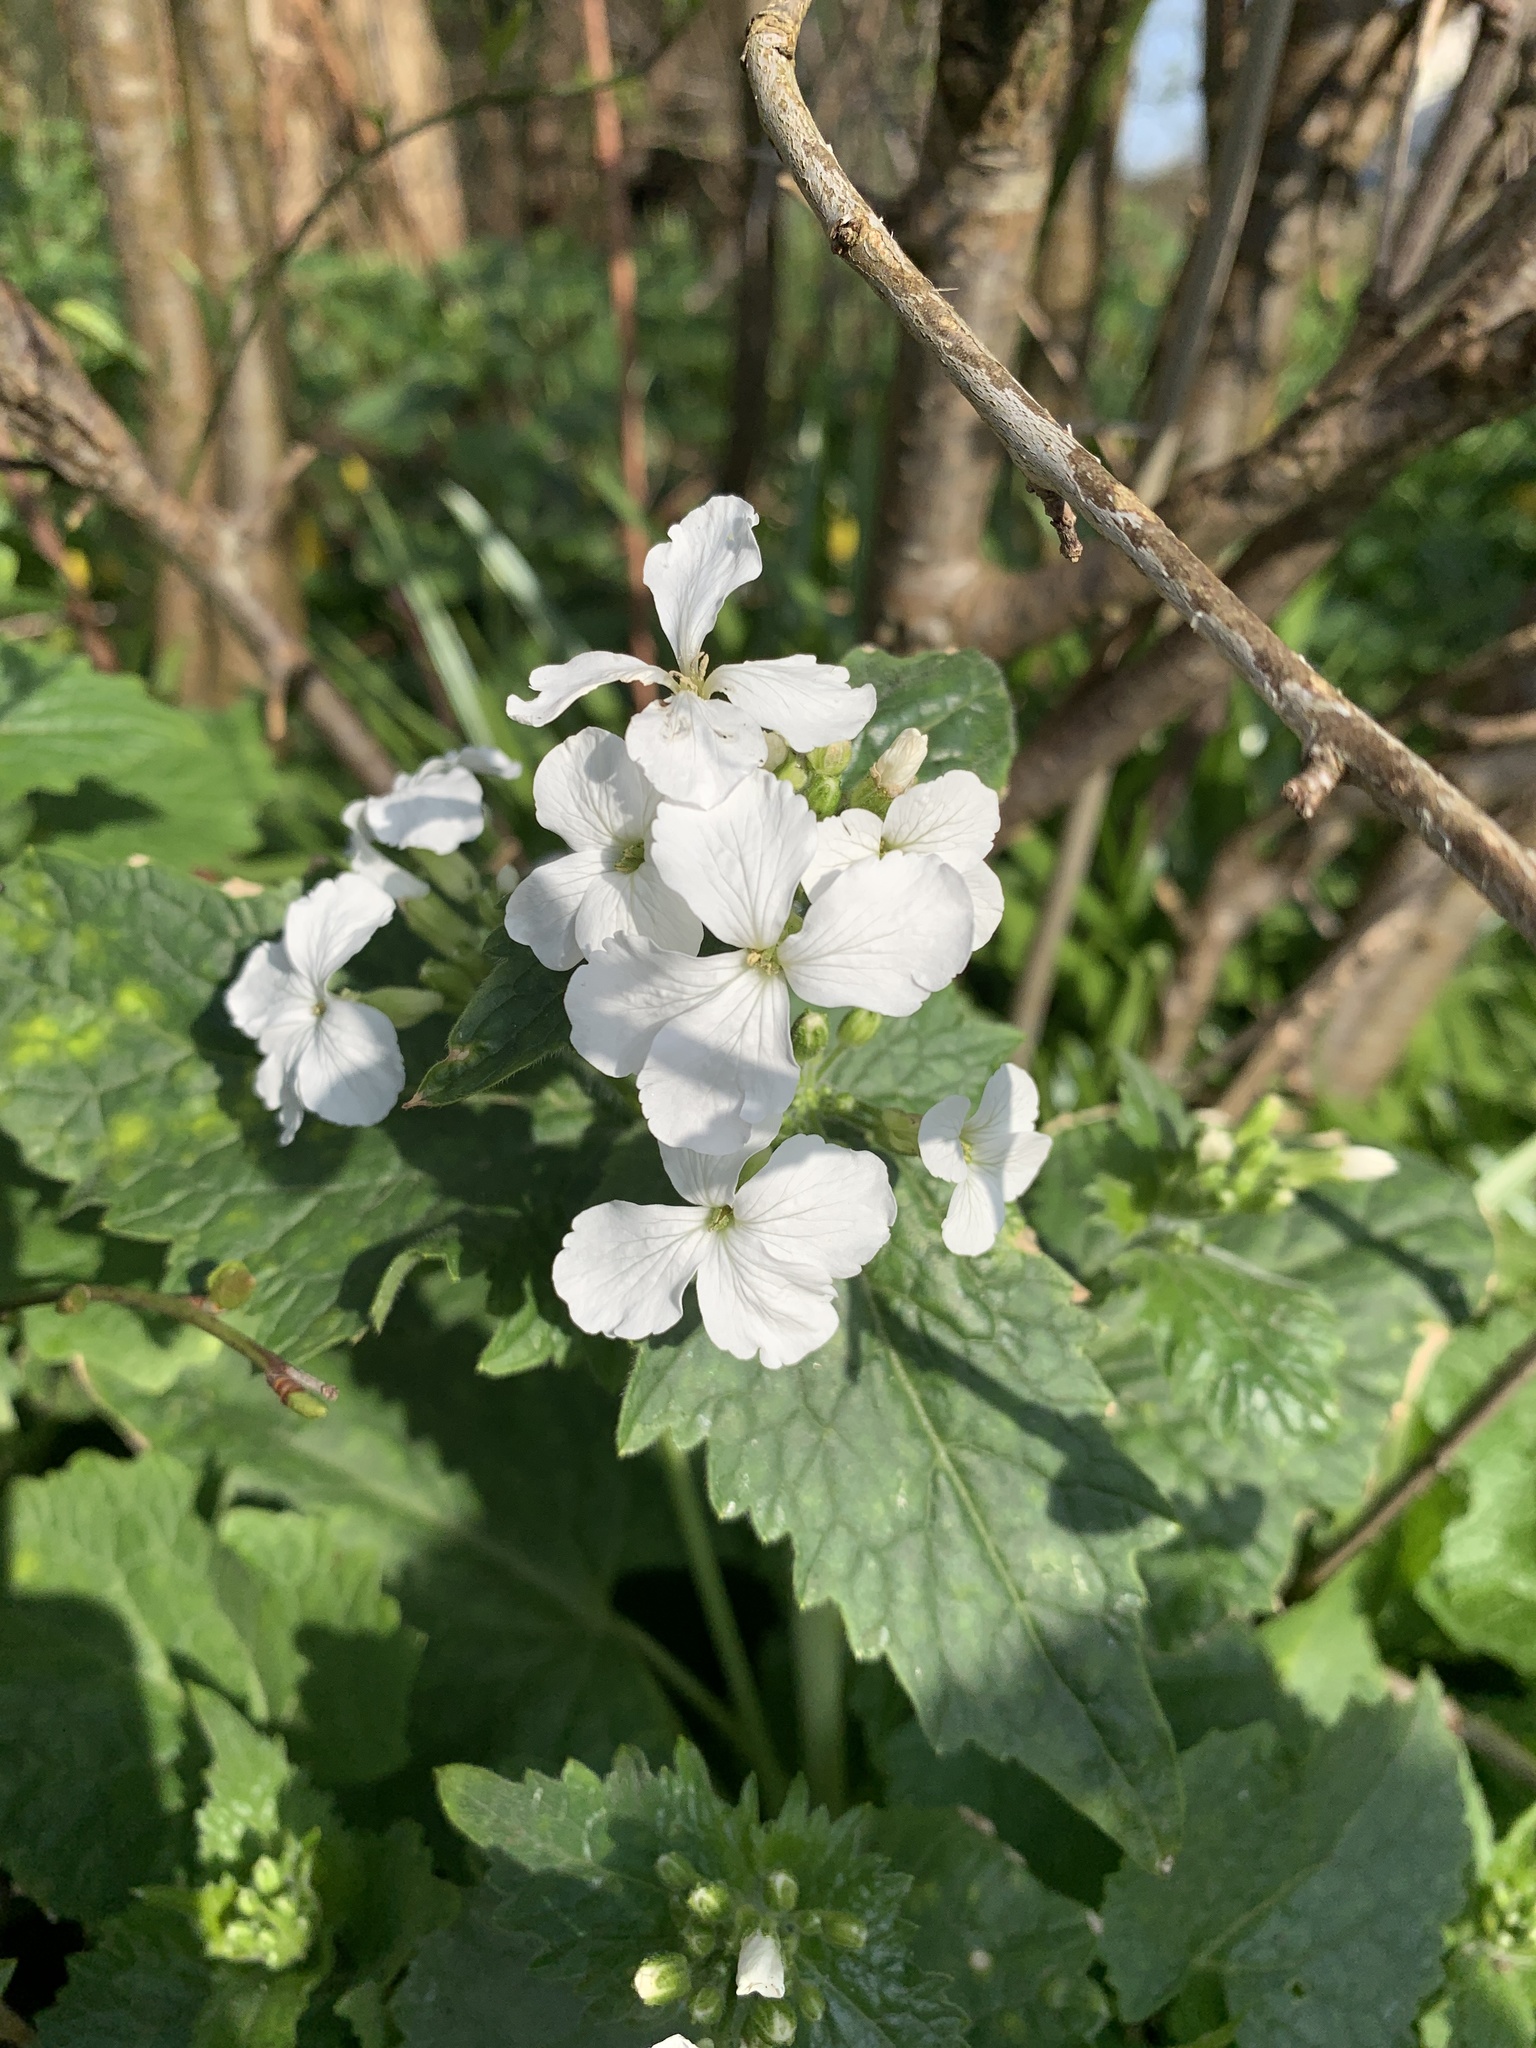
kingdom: Plantae
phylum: Tracheophyta
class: Magnoliopsida
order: Brassicales
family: Brassicaceae
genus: Lunaria
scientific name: Lunaria annua
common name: Honesty
